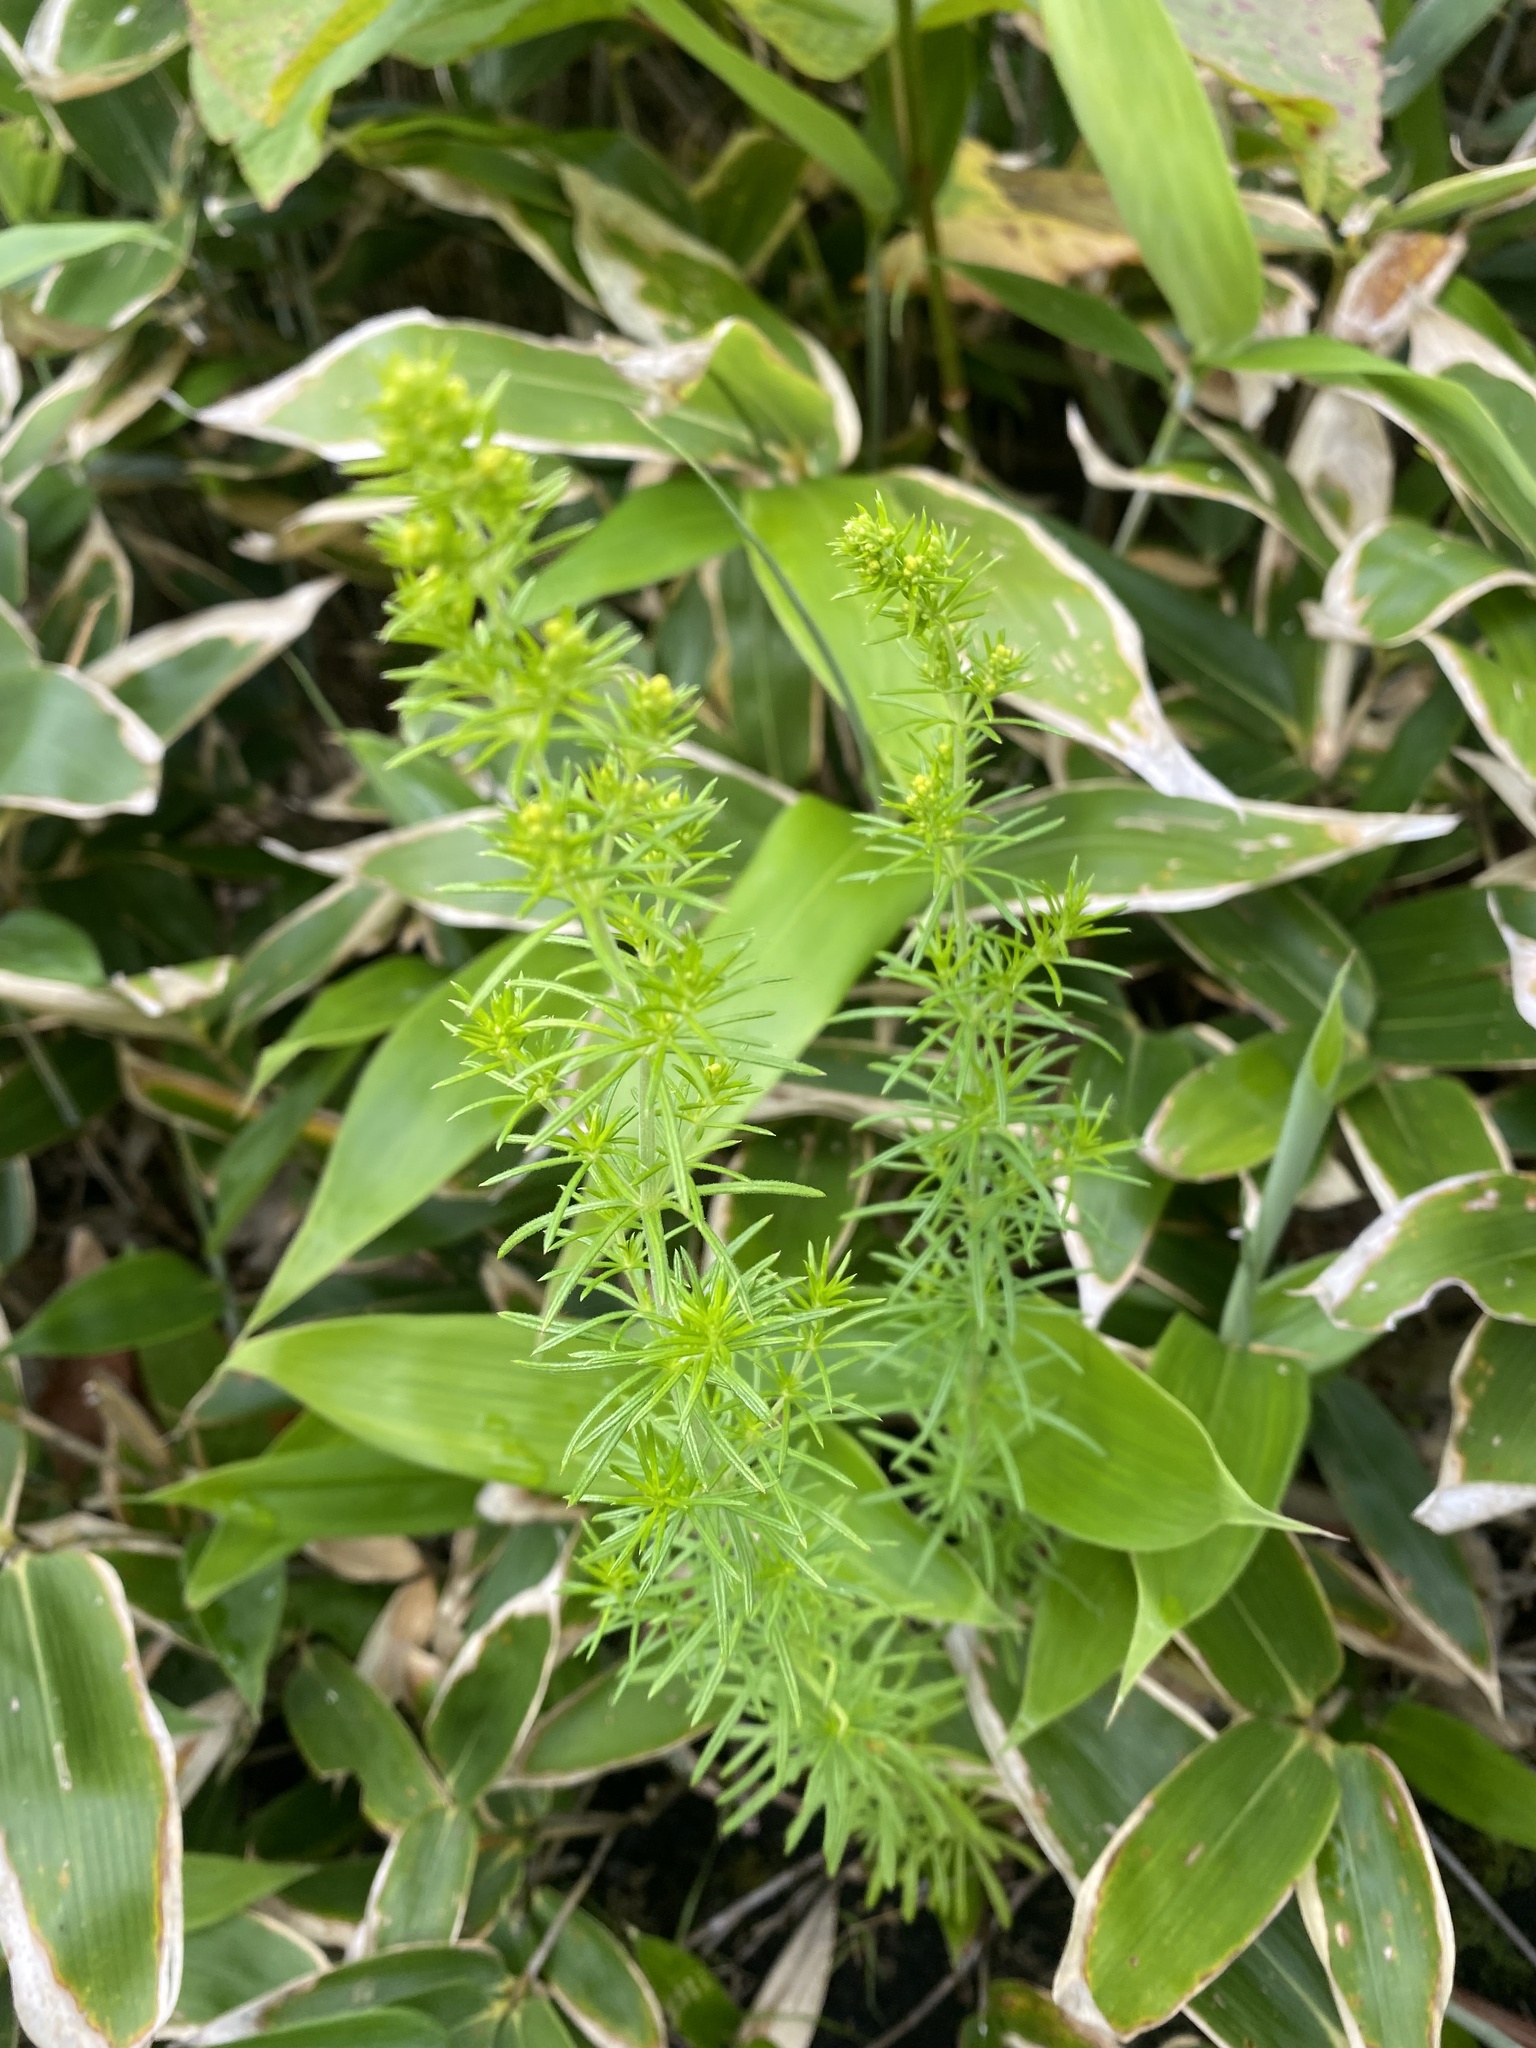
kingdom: Plantae
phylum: Tracheophyta
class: Magnoliopsida
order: Gentianales
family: Rubiaceae
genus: Galium
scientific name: Galium verum
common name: Lady's bedstraw
